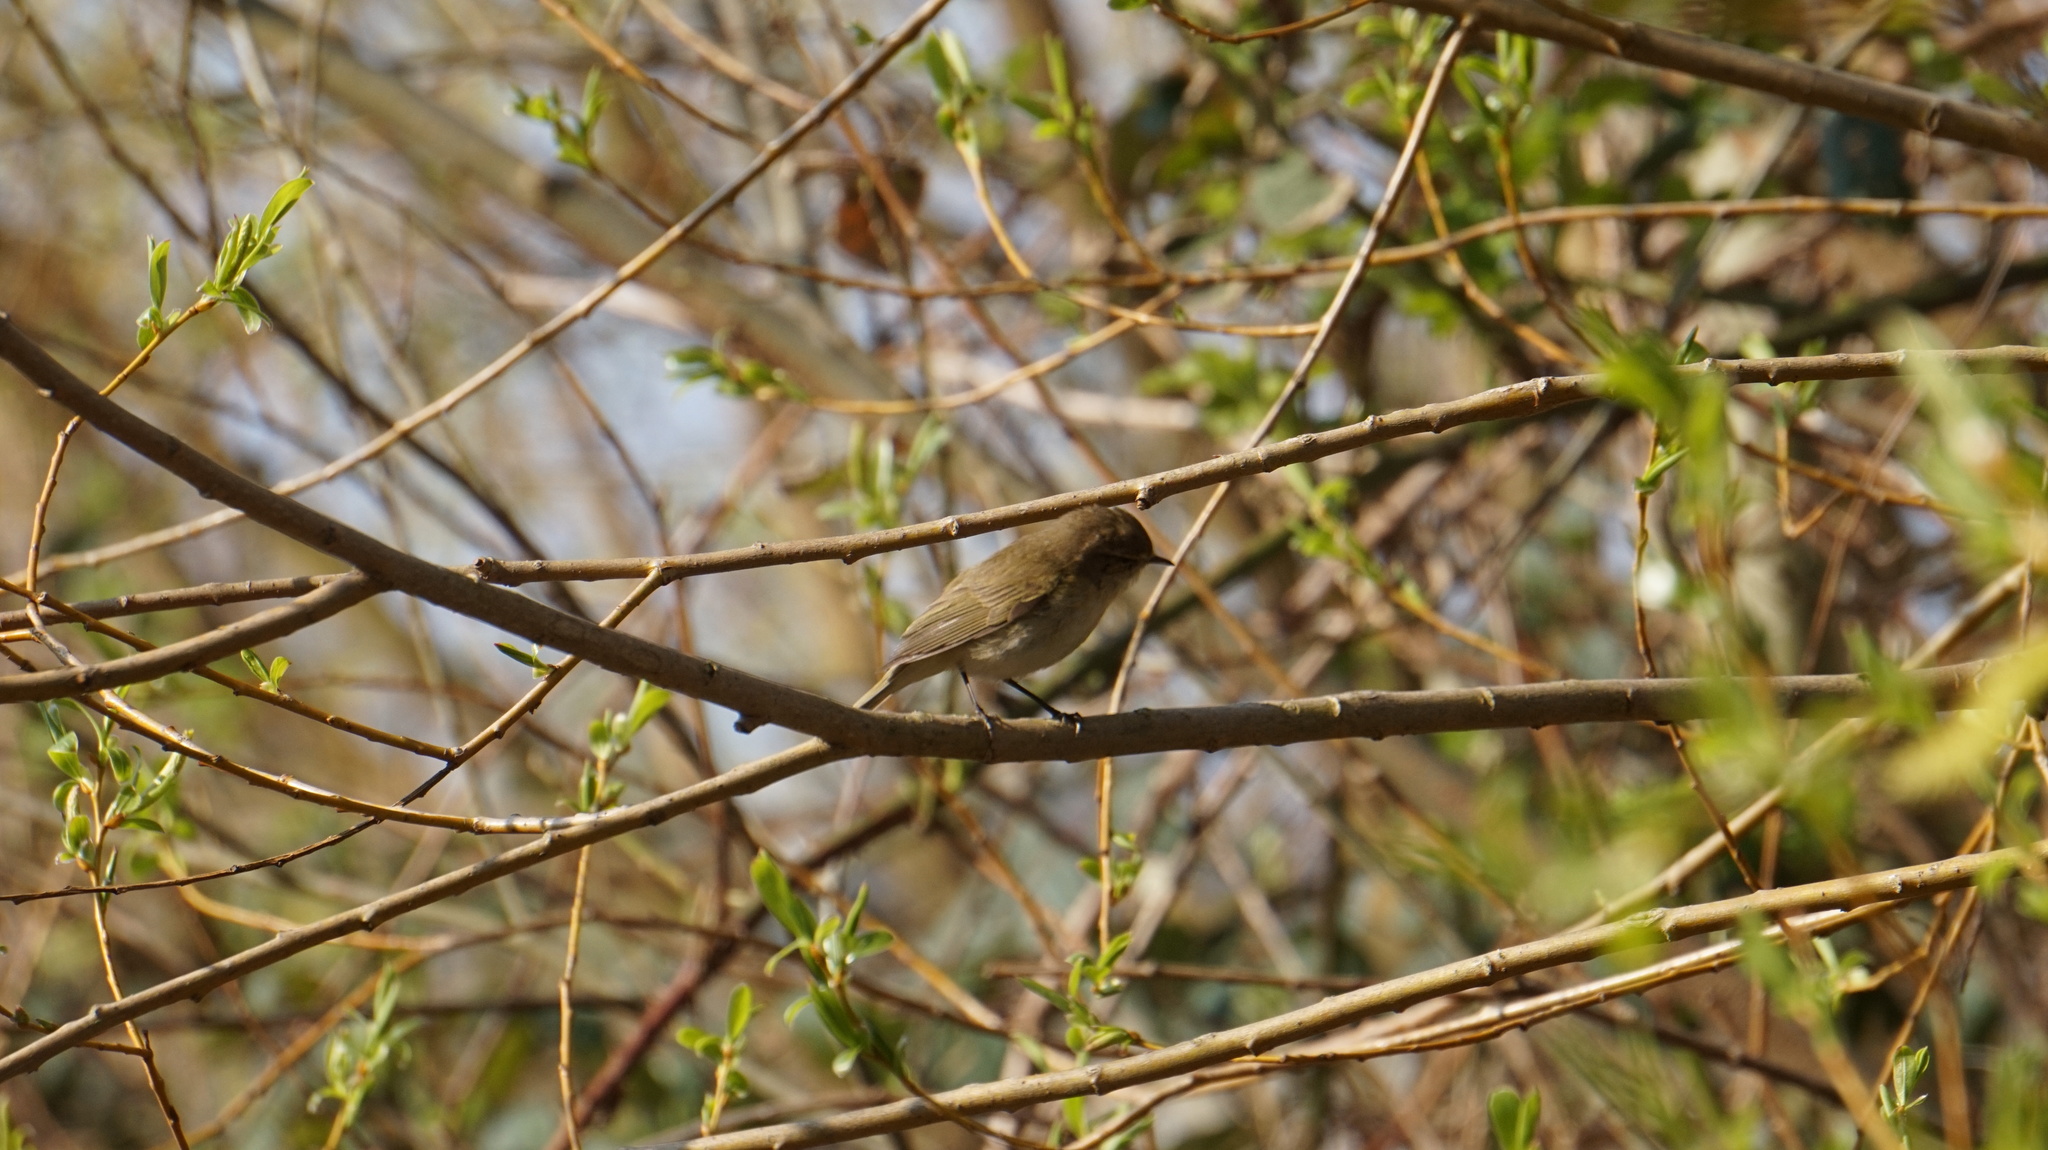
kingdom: Animalia
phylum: Chordata
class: Aves
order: Passeriformes
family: Phylloscopidae
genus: Phylloscopus
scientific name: Phylloscopus collybita
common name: Common chiffchaff
